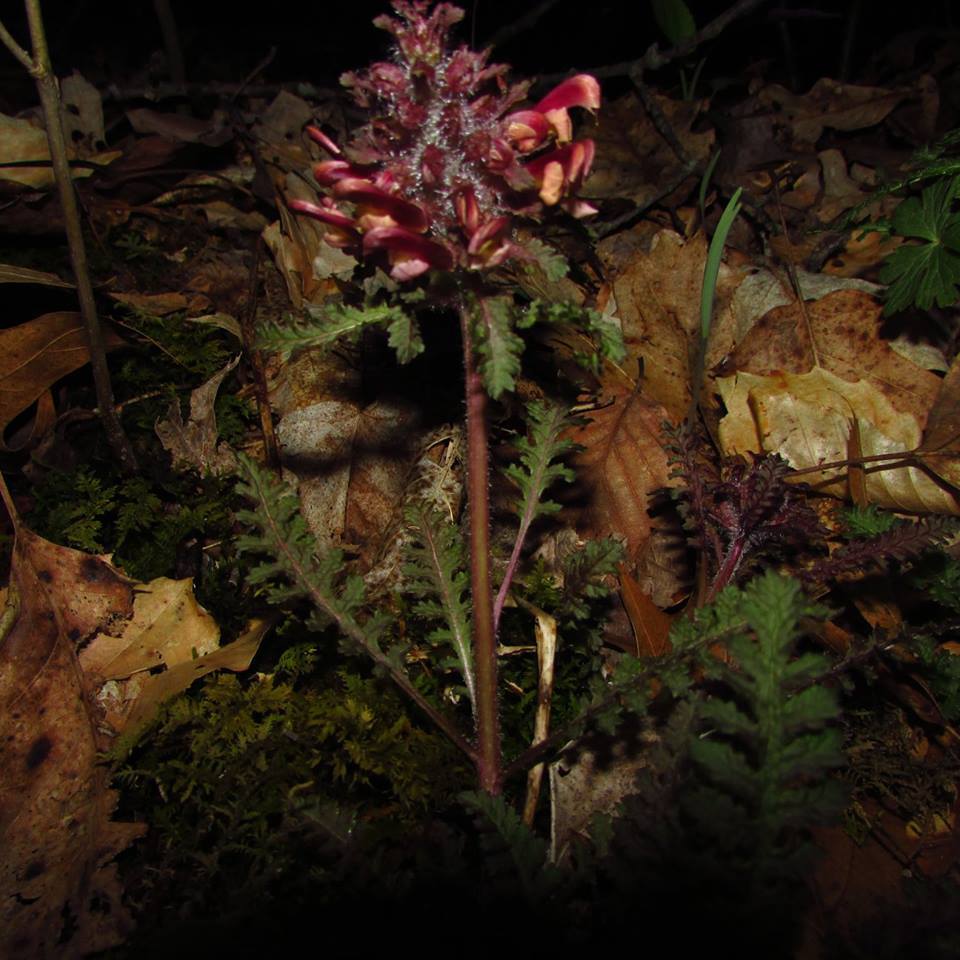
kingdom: Plantae
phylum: Tracheophyta
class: Magnoliopsida
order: Lamiales
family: Orobanchaceae
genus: Pedicularis
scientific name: Pedicularis canadensis
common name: Early lousewort
